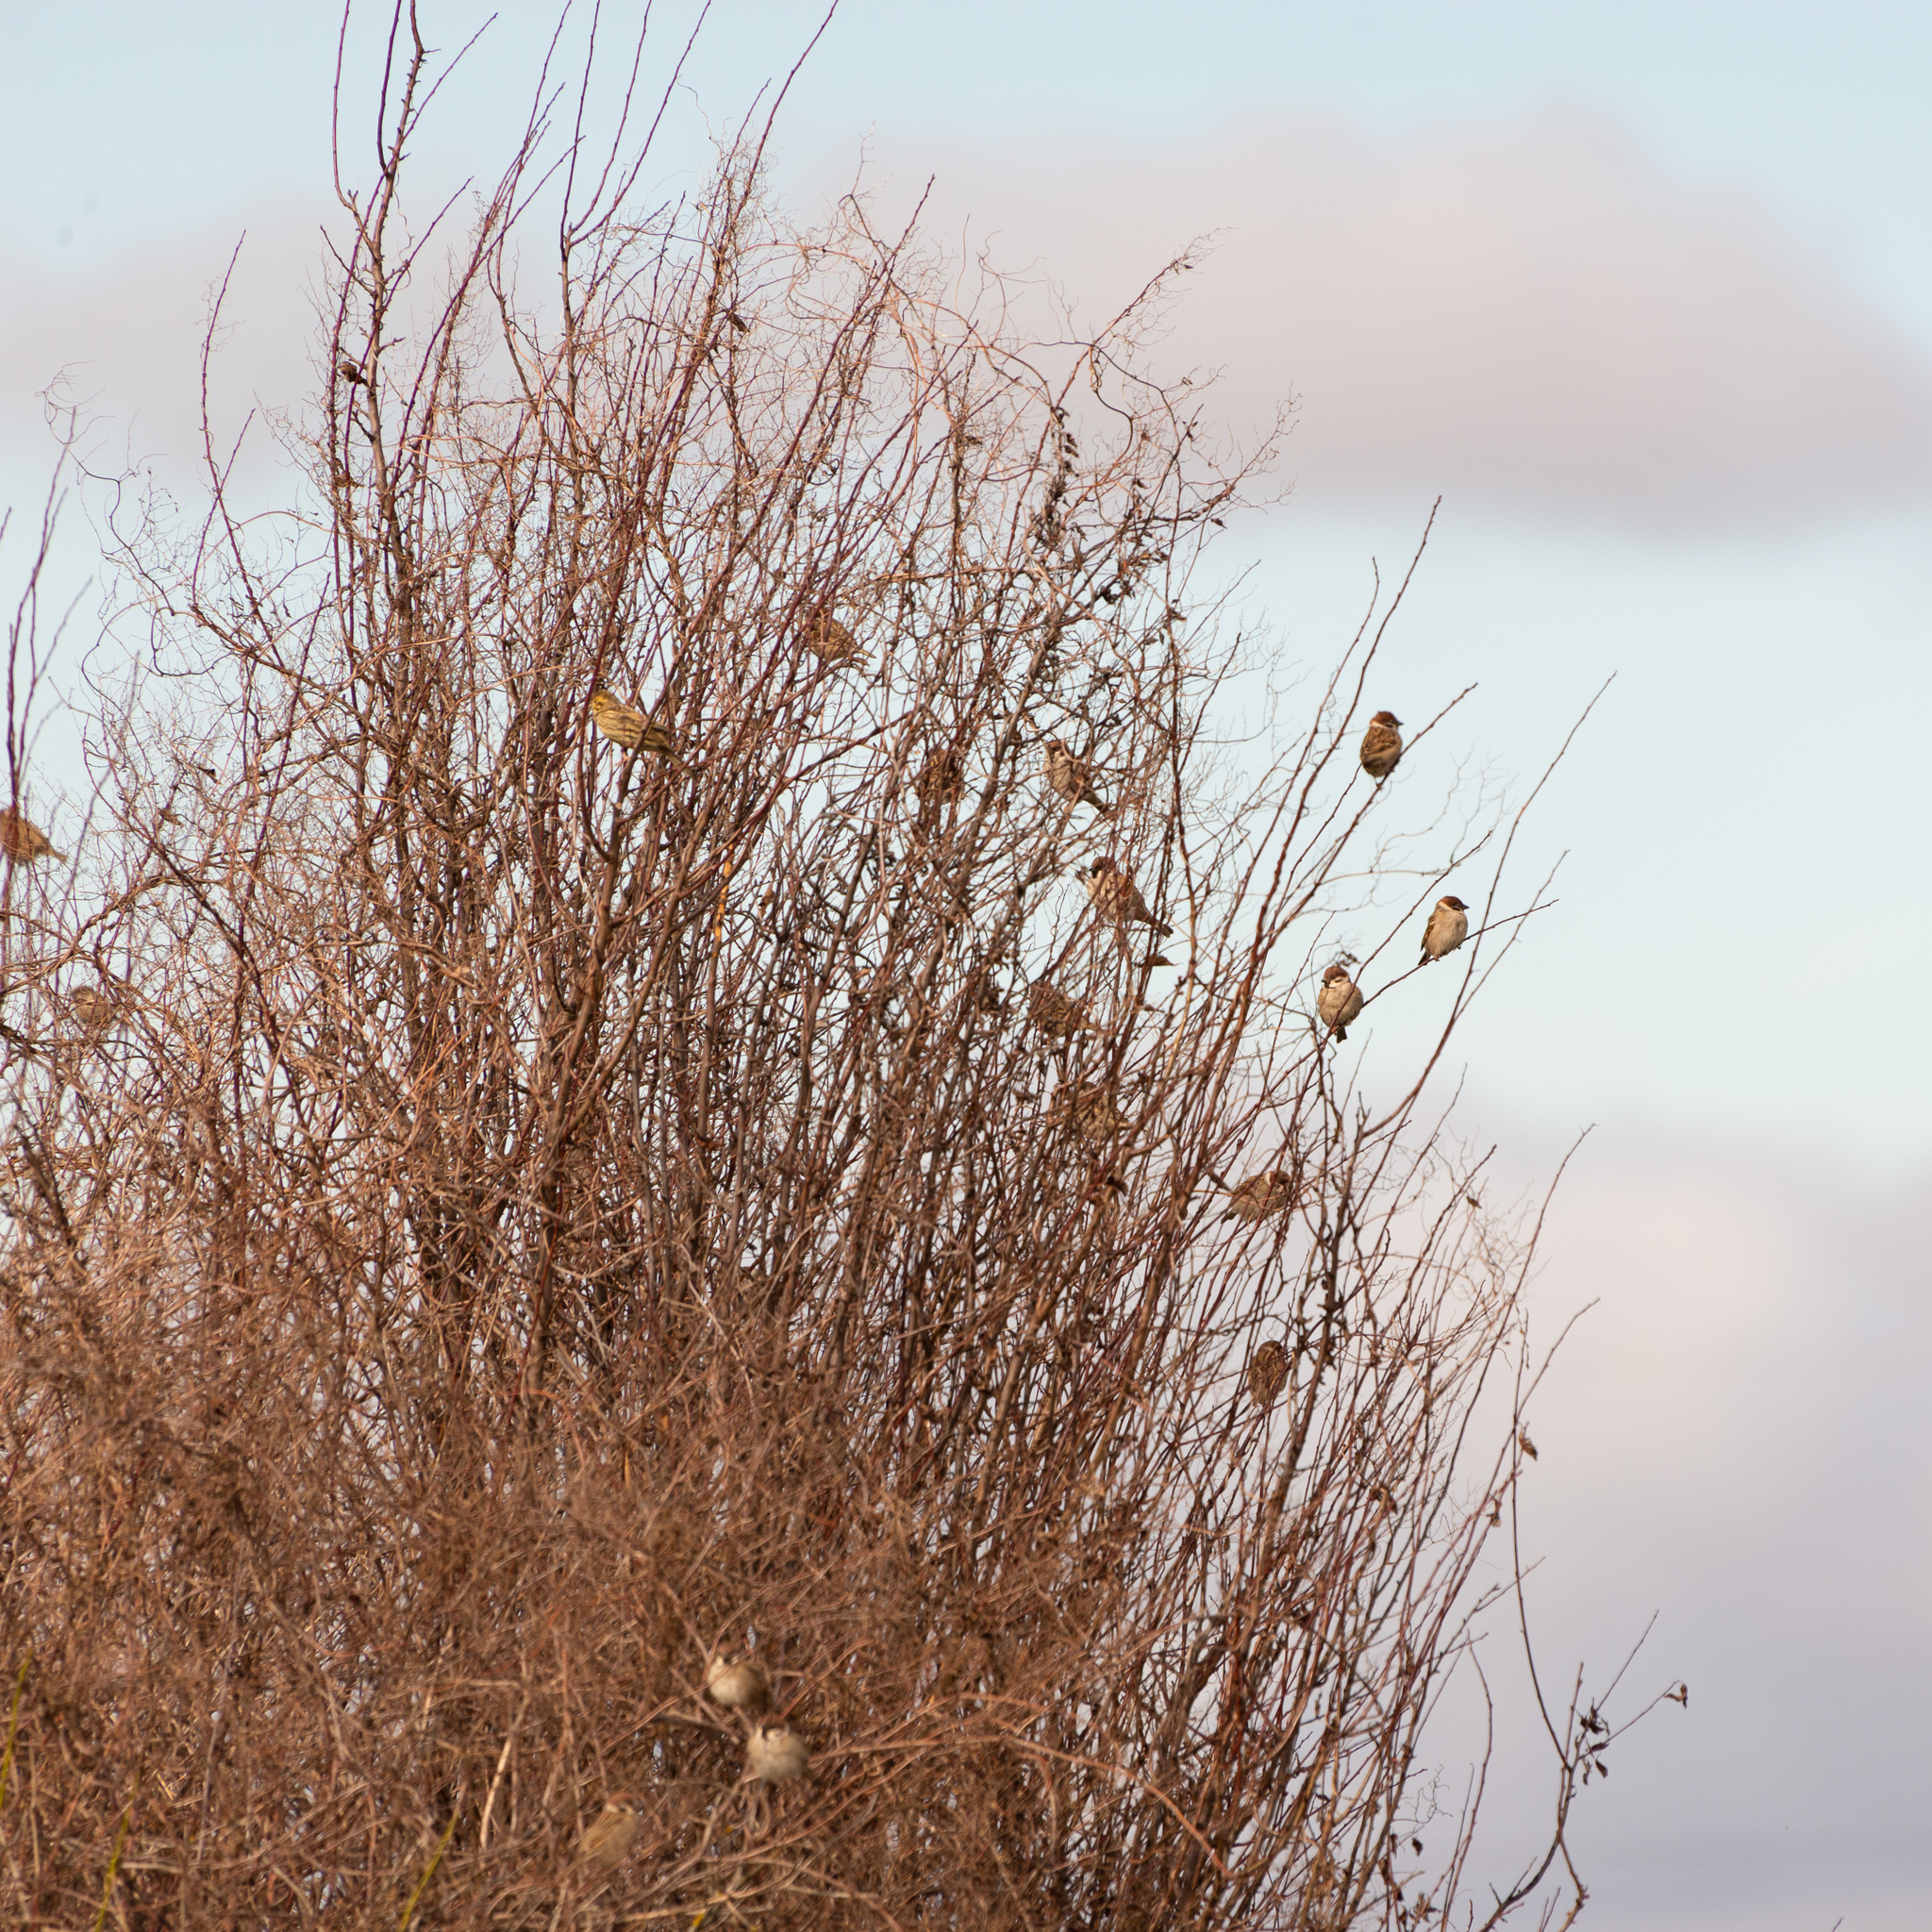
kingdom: Animalia
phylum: Chordata
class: Aves
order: Passeriformes
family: Passeridae
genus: Passer
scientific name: Passer montanus
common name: Eurasian tree sparrow
